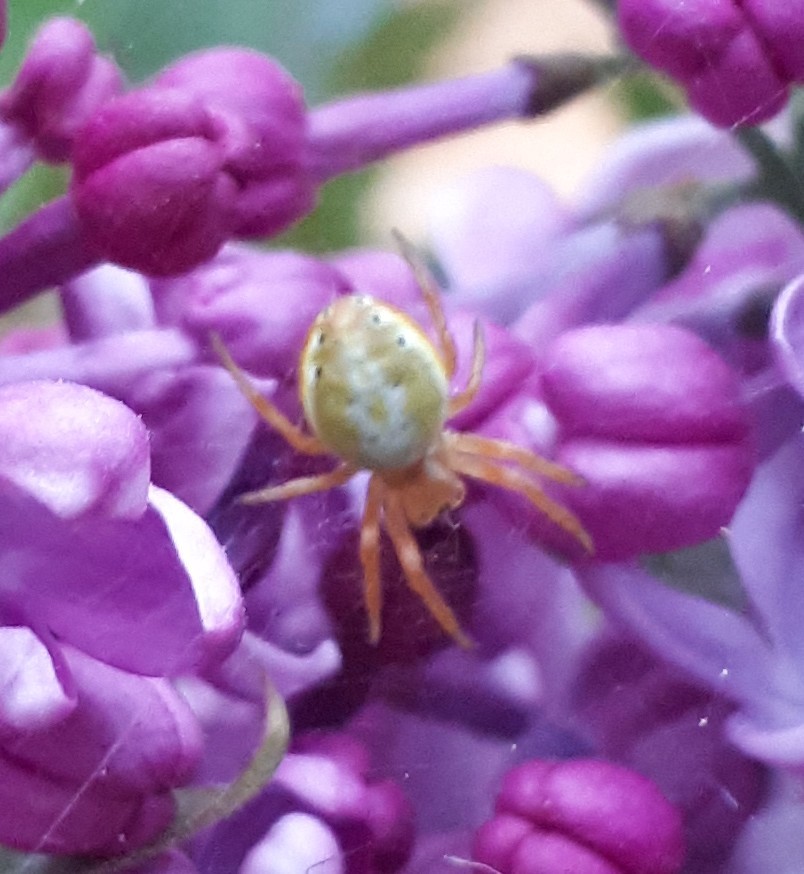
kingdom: Animalia
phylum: Arthropoda
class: Arachnida
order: Araneae
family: Araneidae
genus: Araniella
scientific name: Araniella displicata
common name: Sixspotted orb weaver
